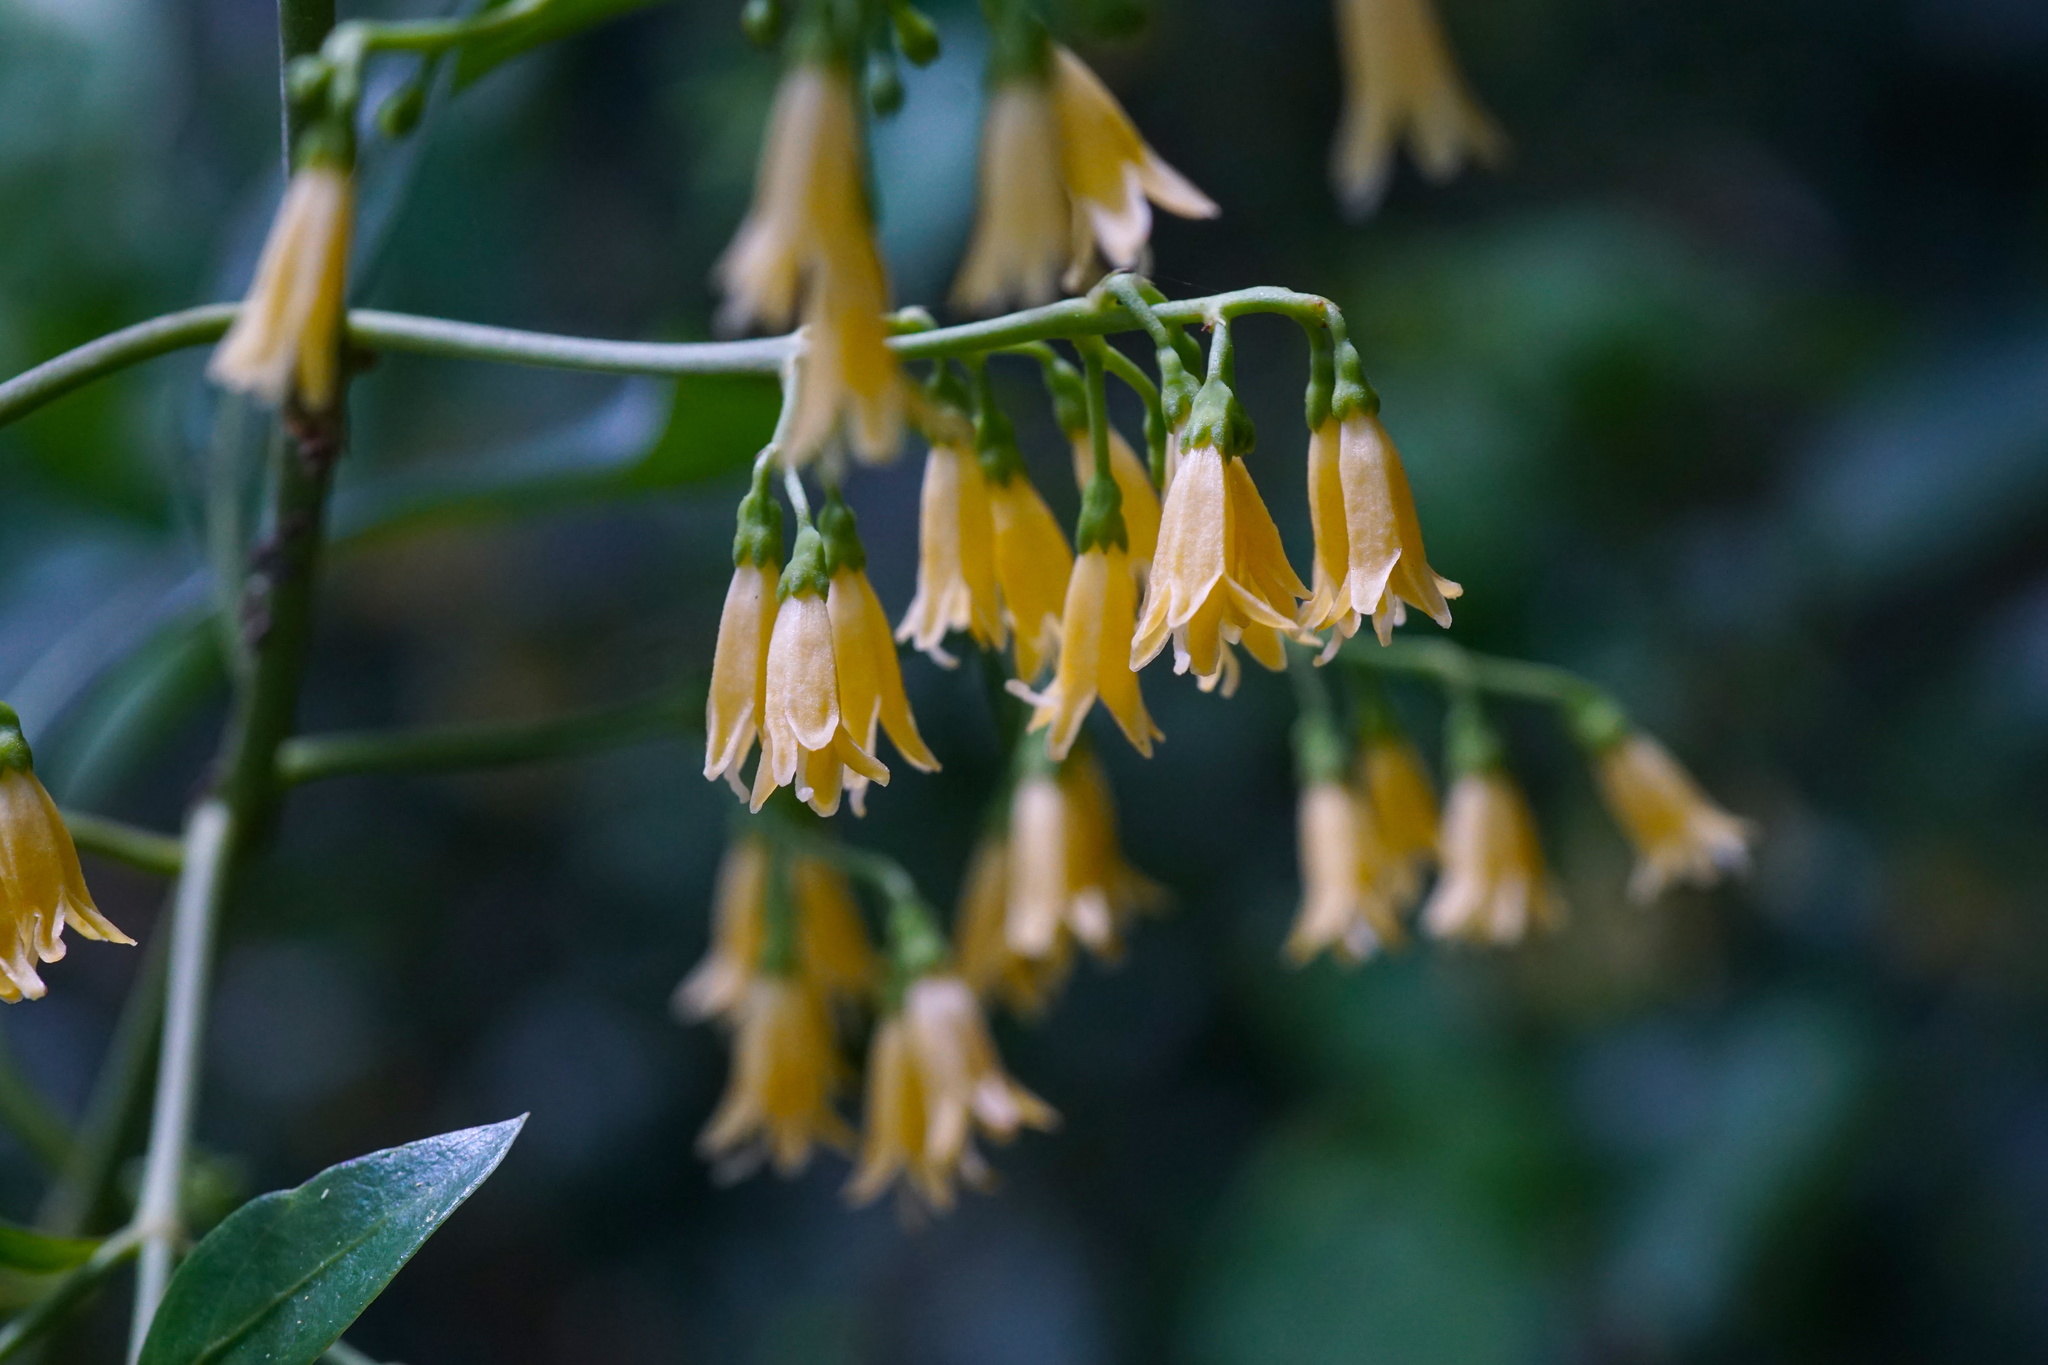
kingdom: Plantae
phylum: Tracheophyta
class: Magnoliopsida
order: Gentianales
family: Rubiaceae
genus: Chiococca
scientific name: Chiococca alba
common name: Snowberry
